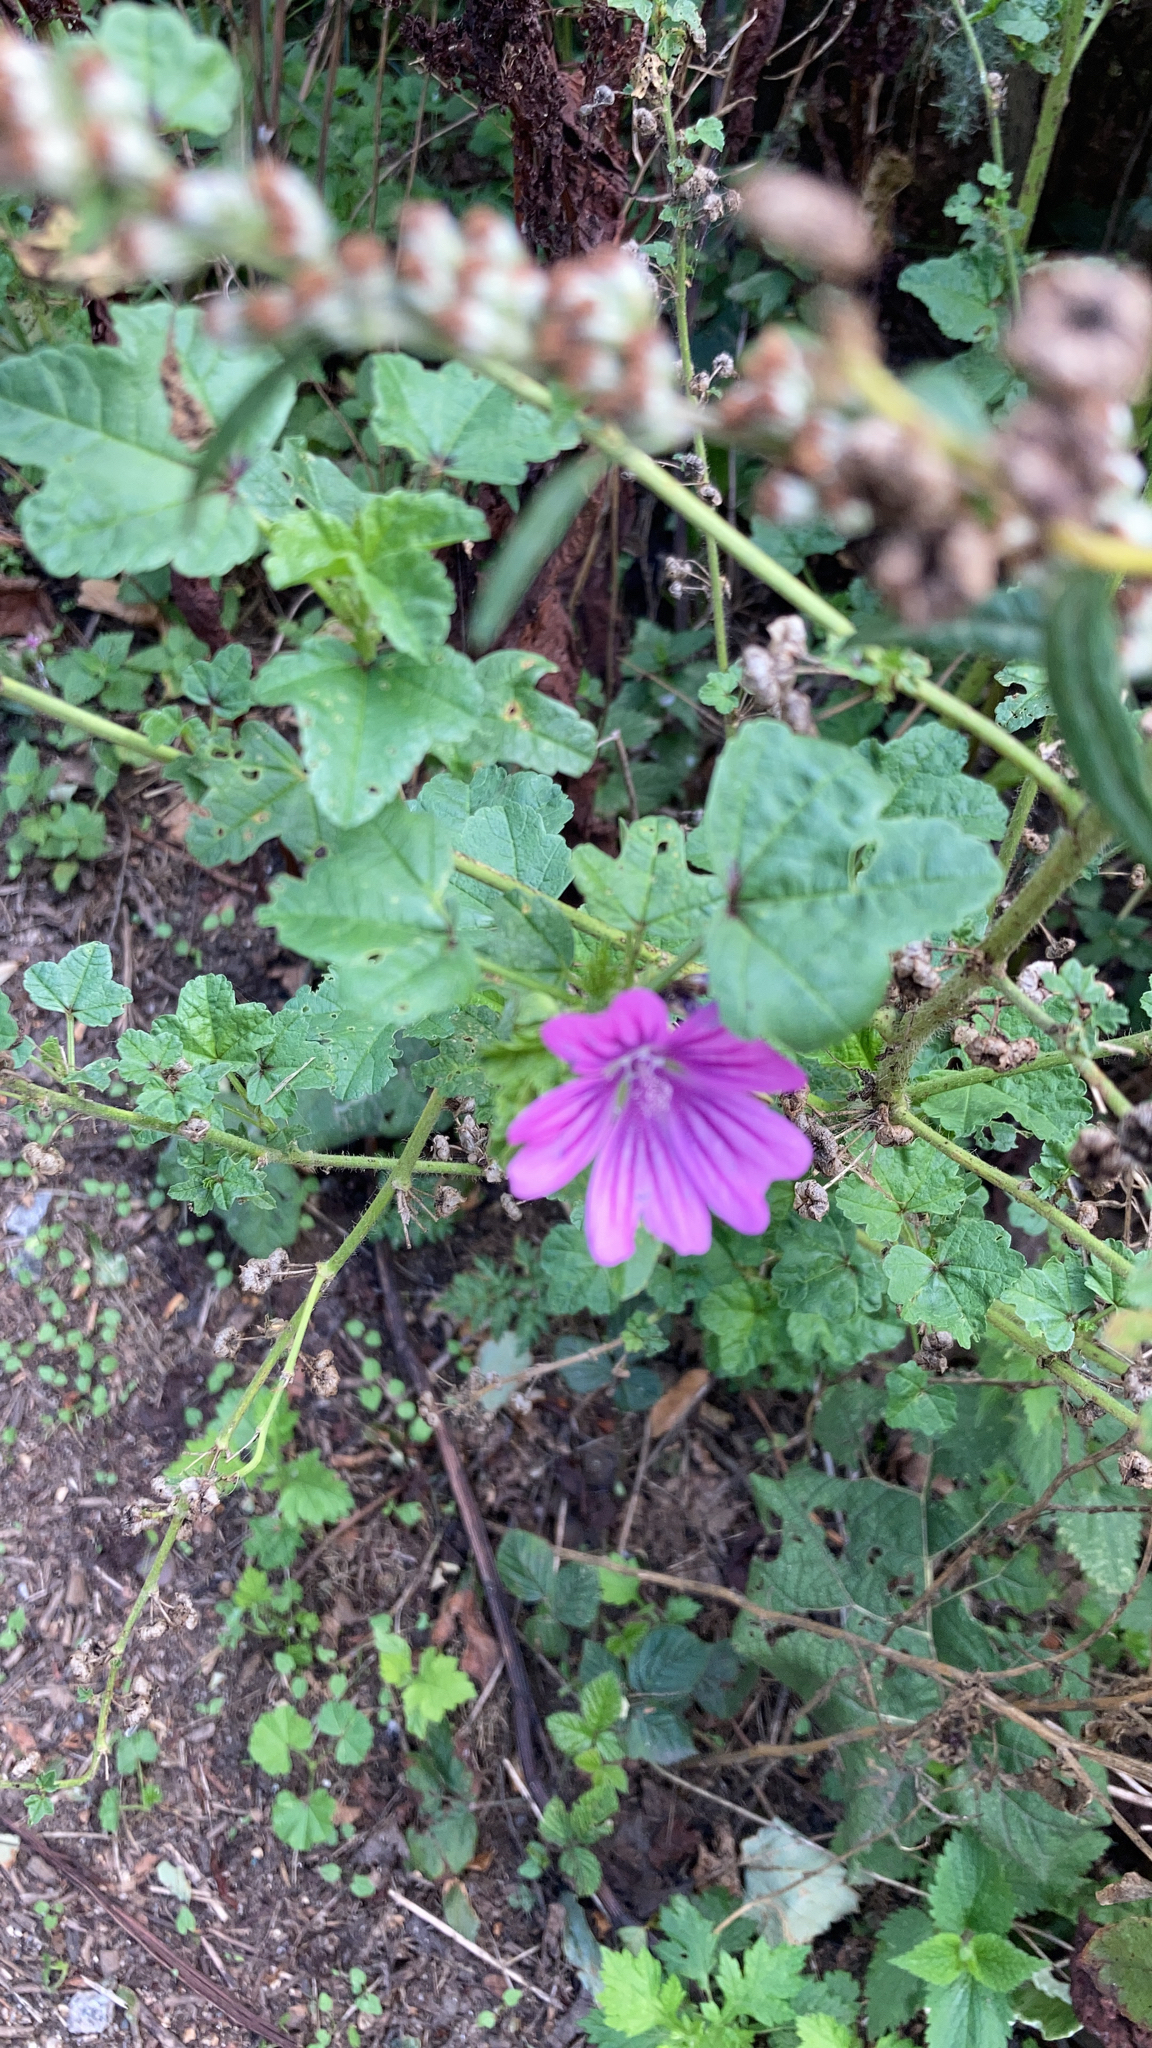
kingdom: Plantae
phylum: Tracheophyta
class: Magnoliopsida
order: Malvales
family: Malvaceae
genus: Malva
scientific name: Malva sylvestris
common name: Common mallow
